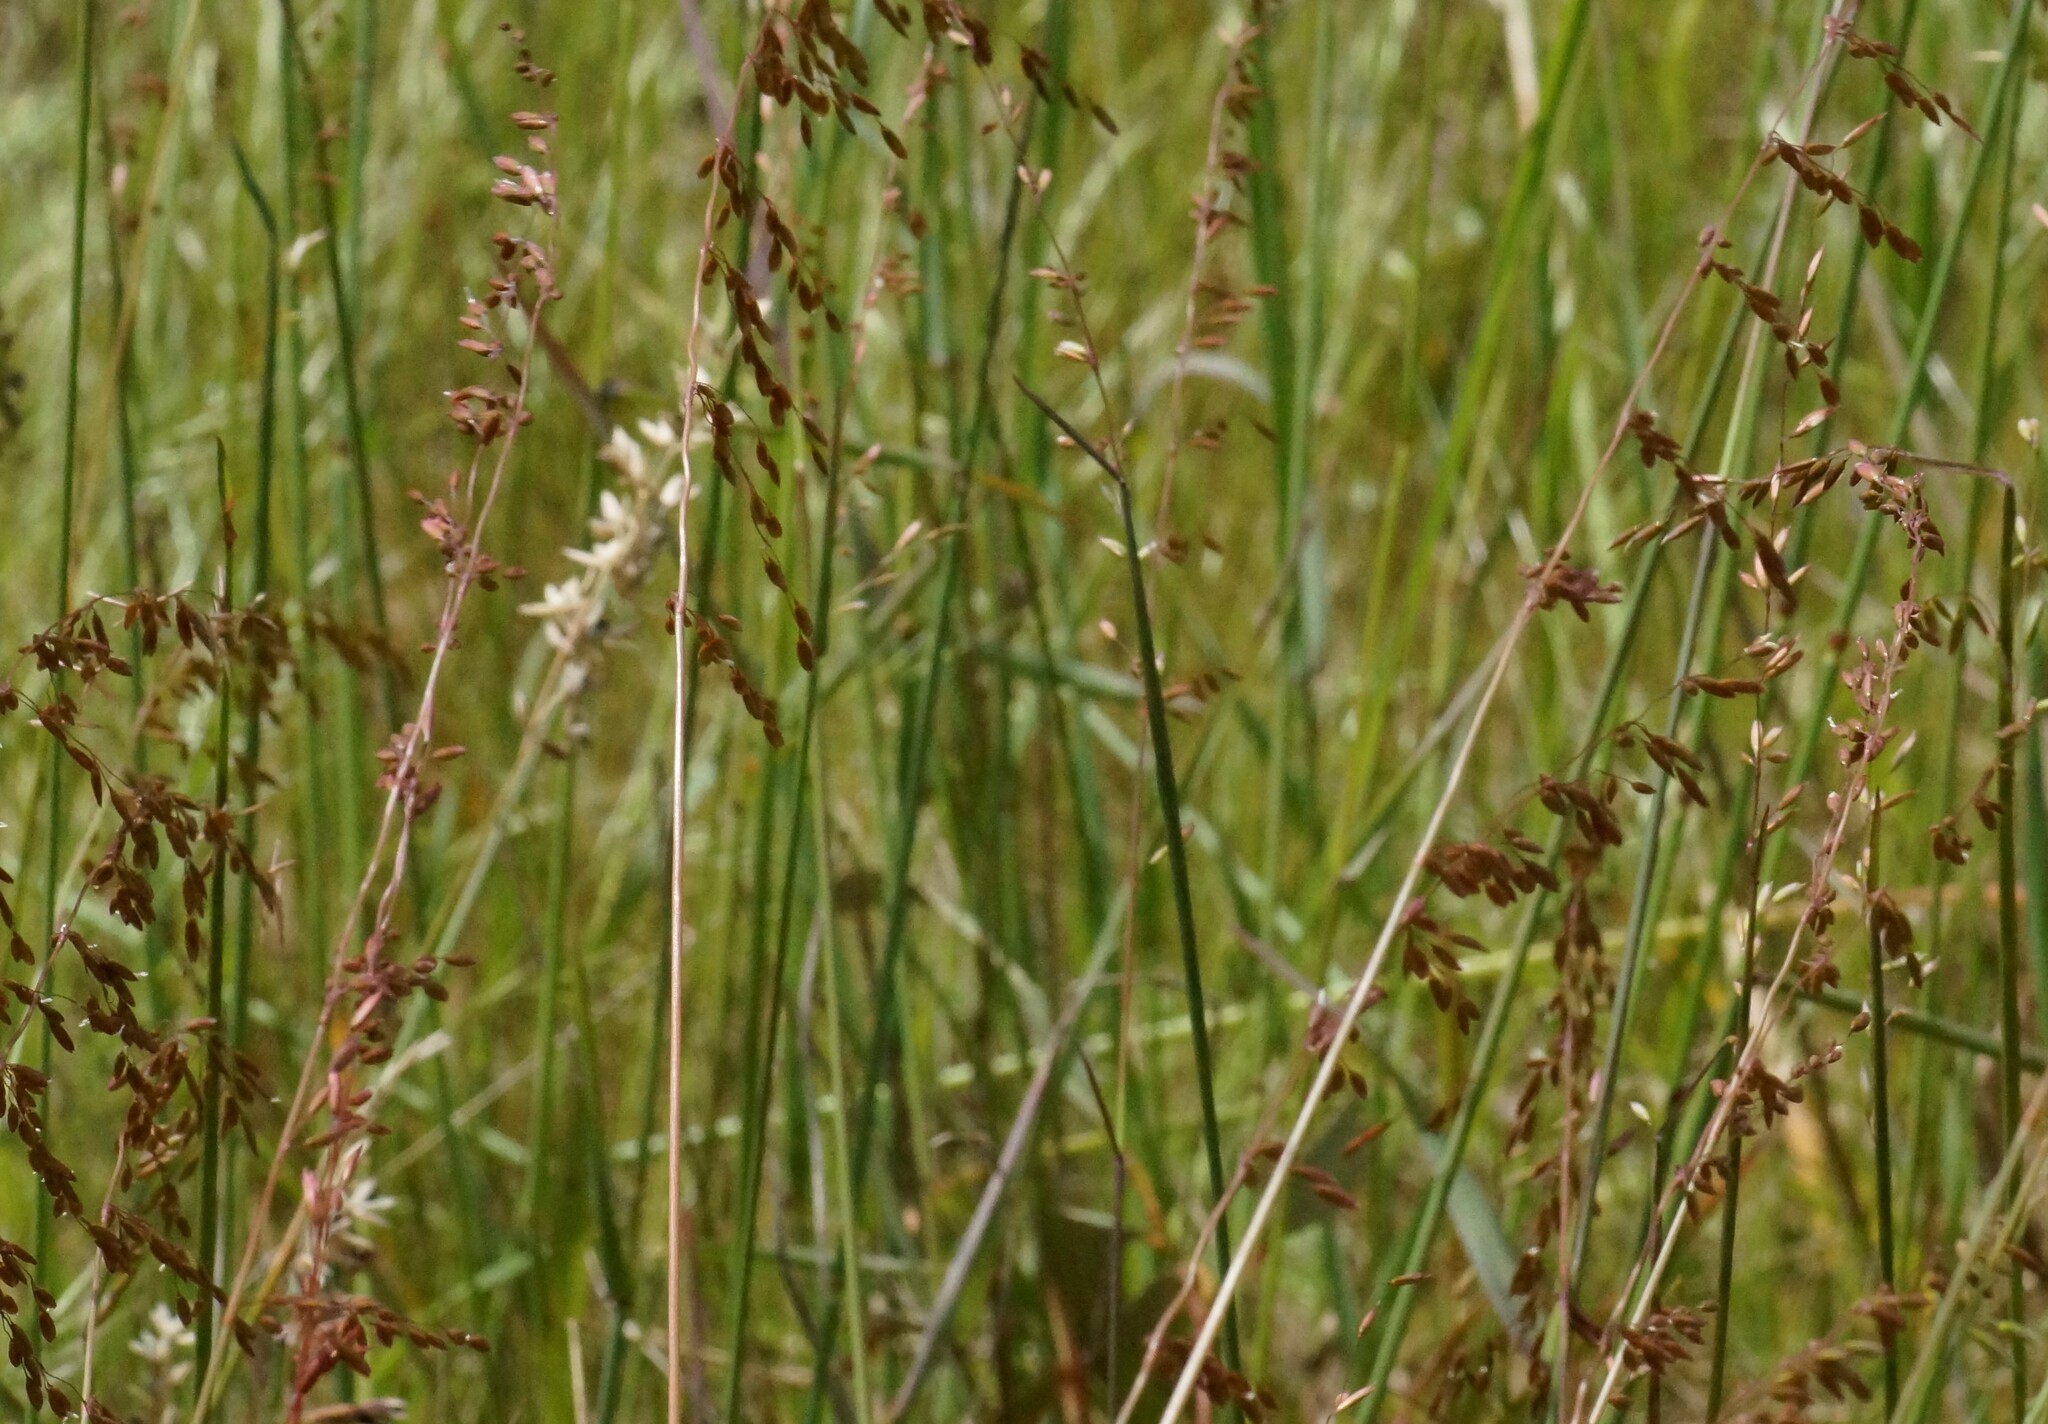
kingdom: Plantae
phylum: Tracheophyta
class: Liliopsida
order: Poales
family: Poaceae
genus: Ehrharta
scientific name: Ehrharta calycina
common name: Perennial veldtgrass
